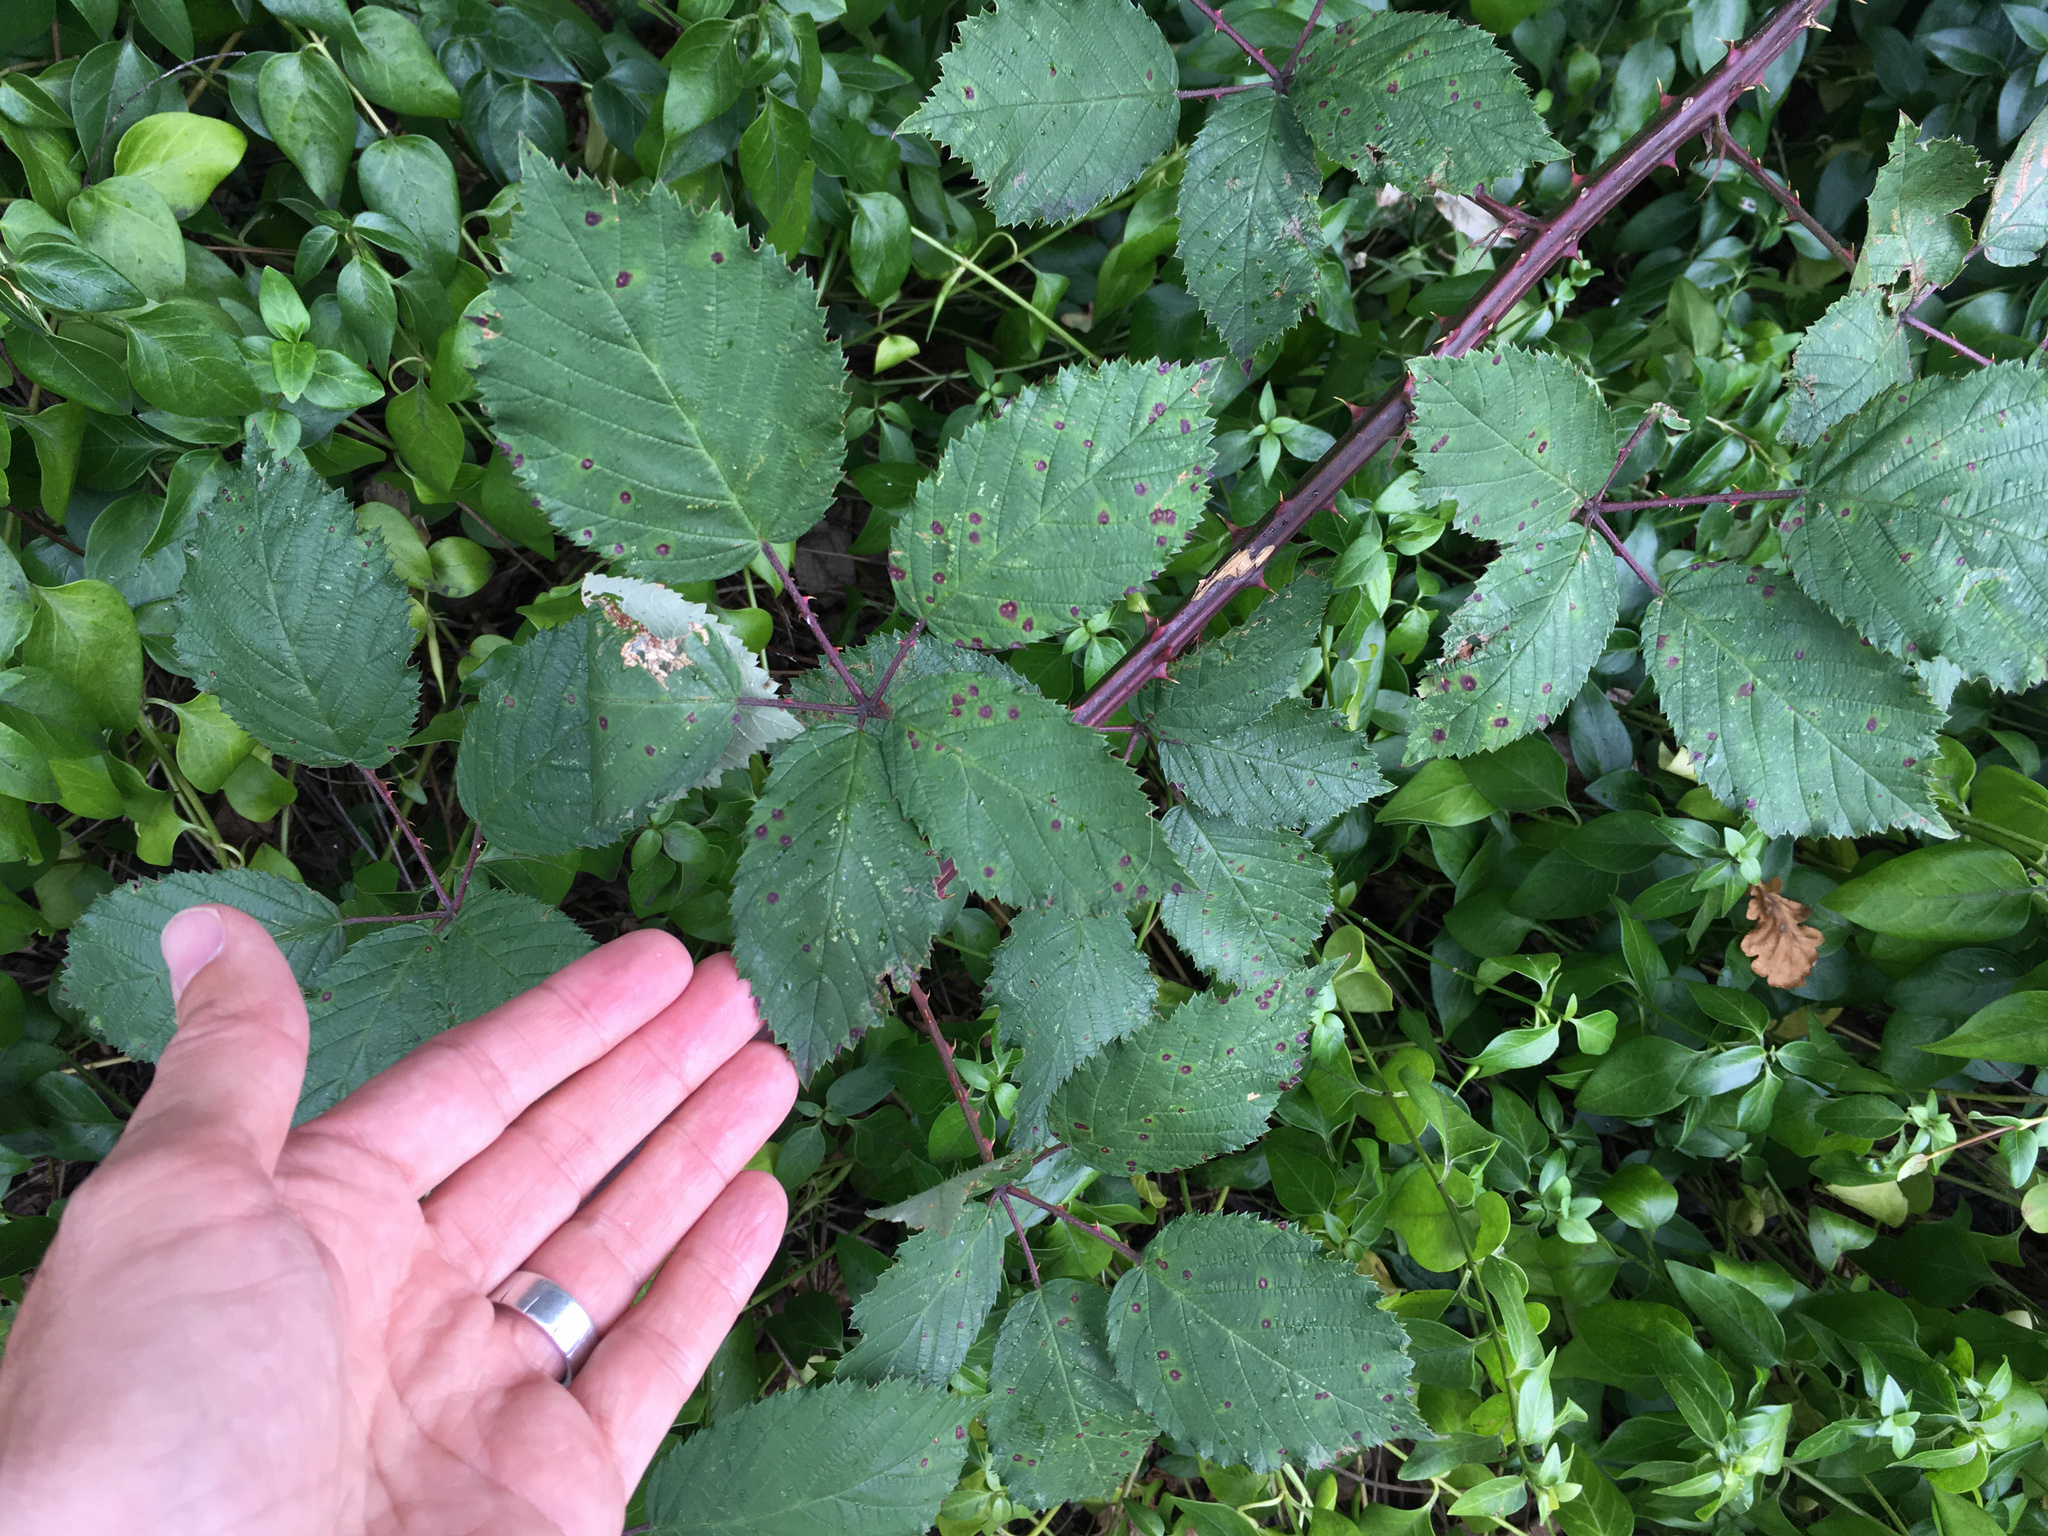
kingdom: Plantae
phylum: Tracheophyta
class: Magnoliopsida
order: Rosales
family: Rosaceae
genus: Rubus
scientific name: Rubus
